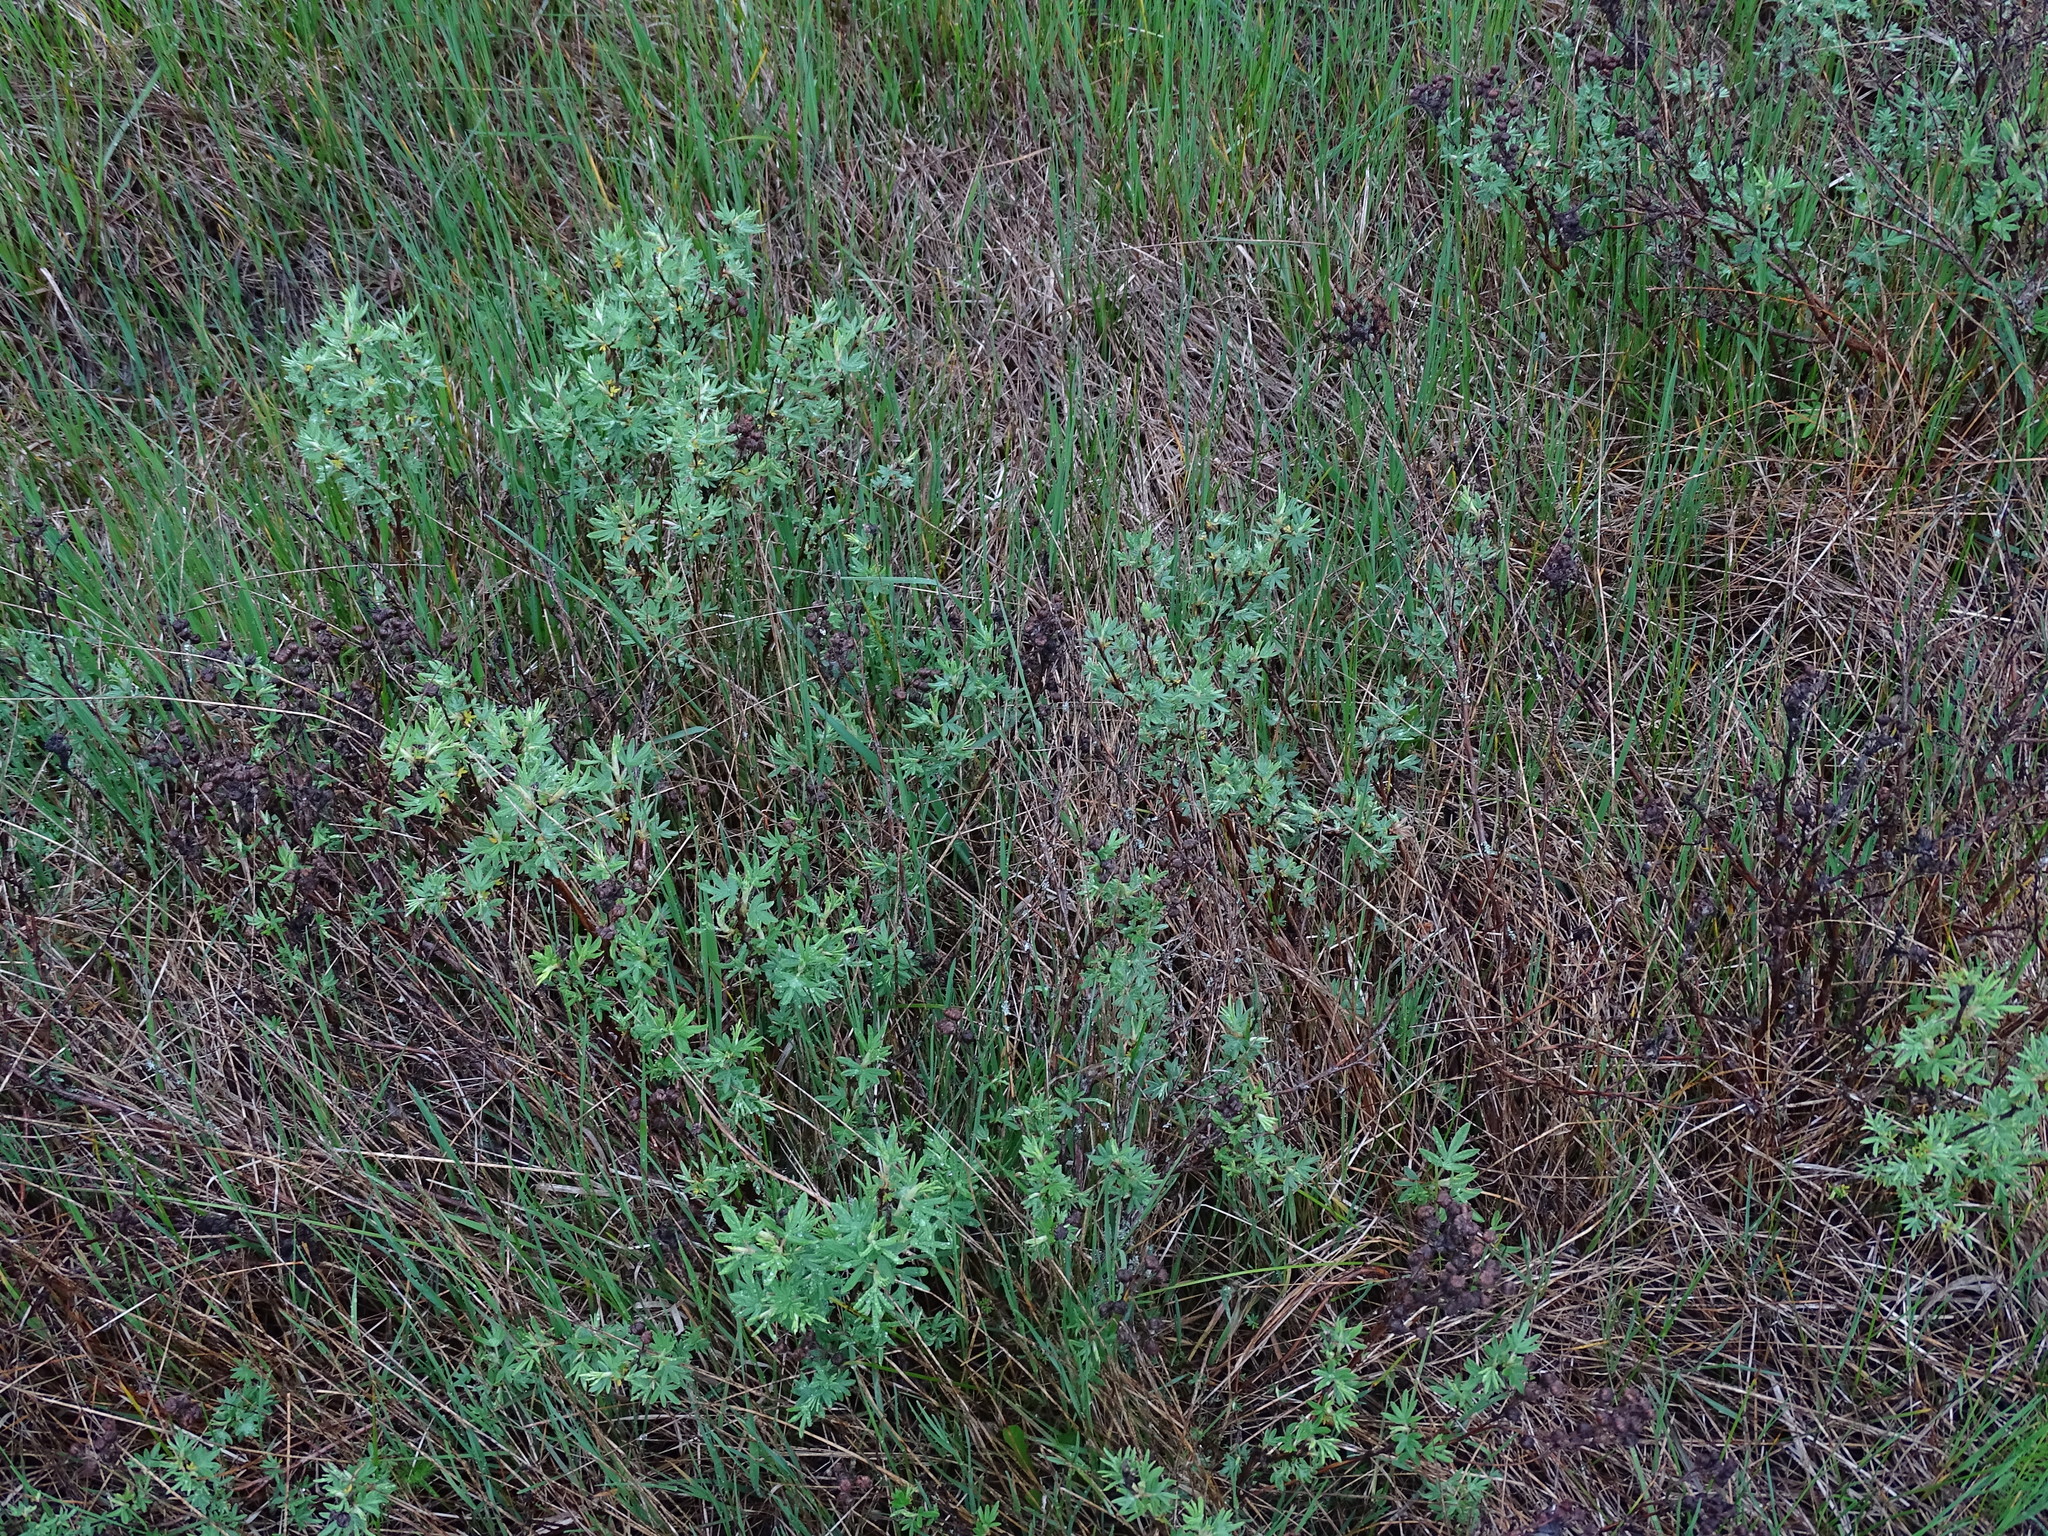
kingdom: Plantae
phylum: Tracheophyta
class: Magnoliopsida
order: Rosales
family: Rosaceae
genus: Dasiphora
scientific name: Dasiphora fruticosa
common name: Shrubby cinquefoil
